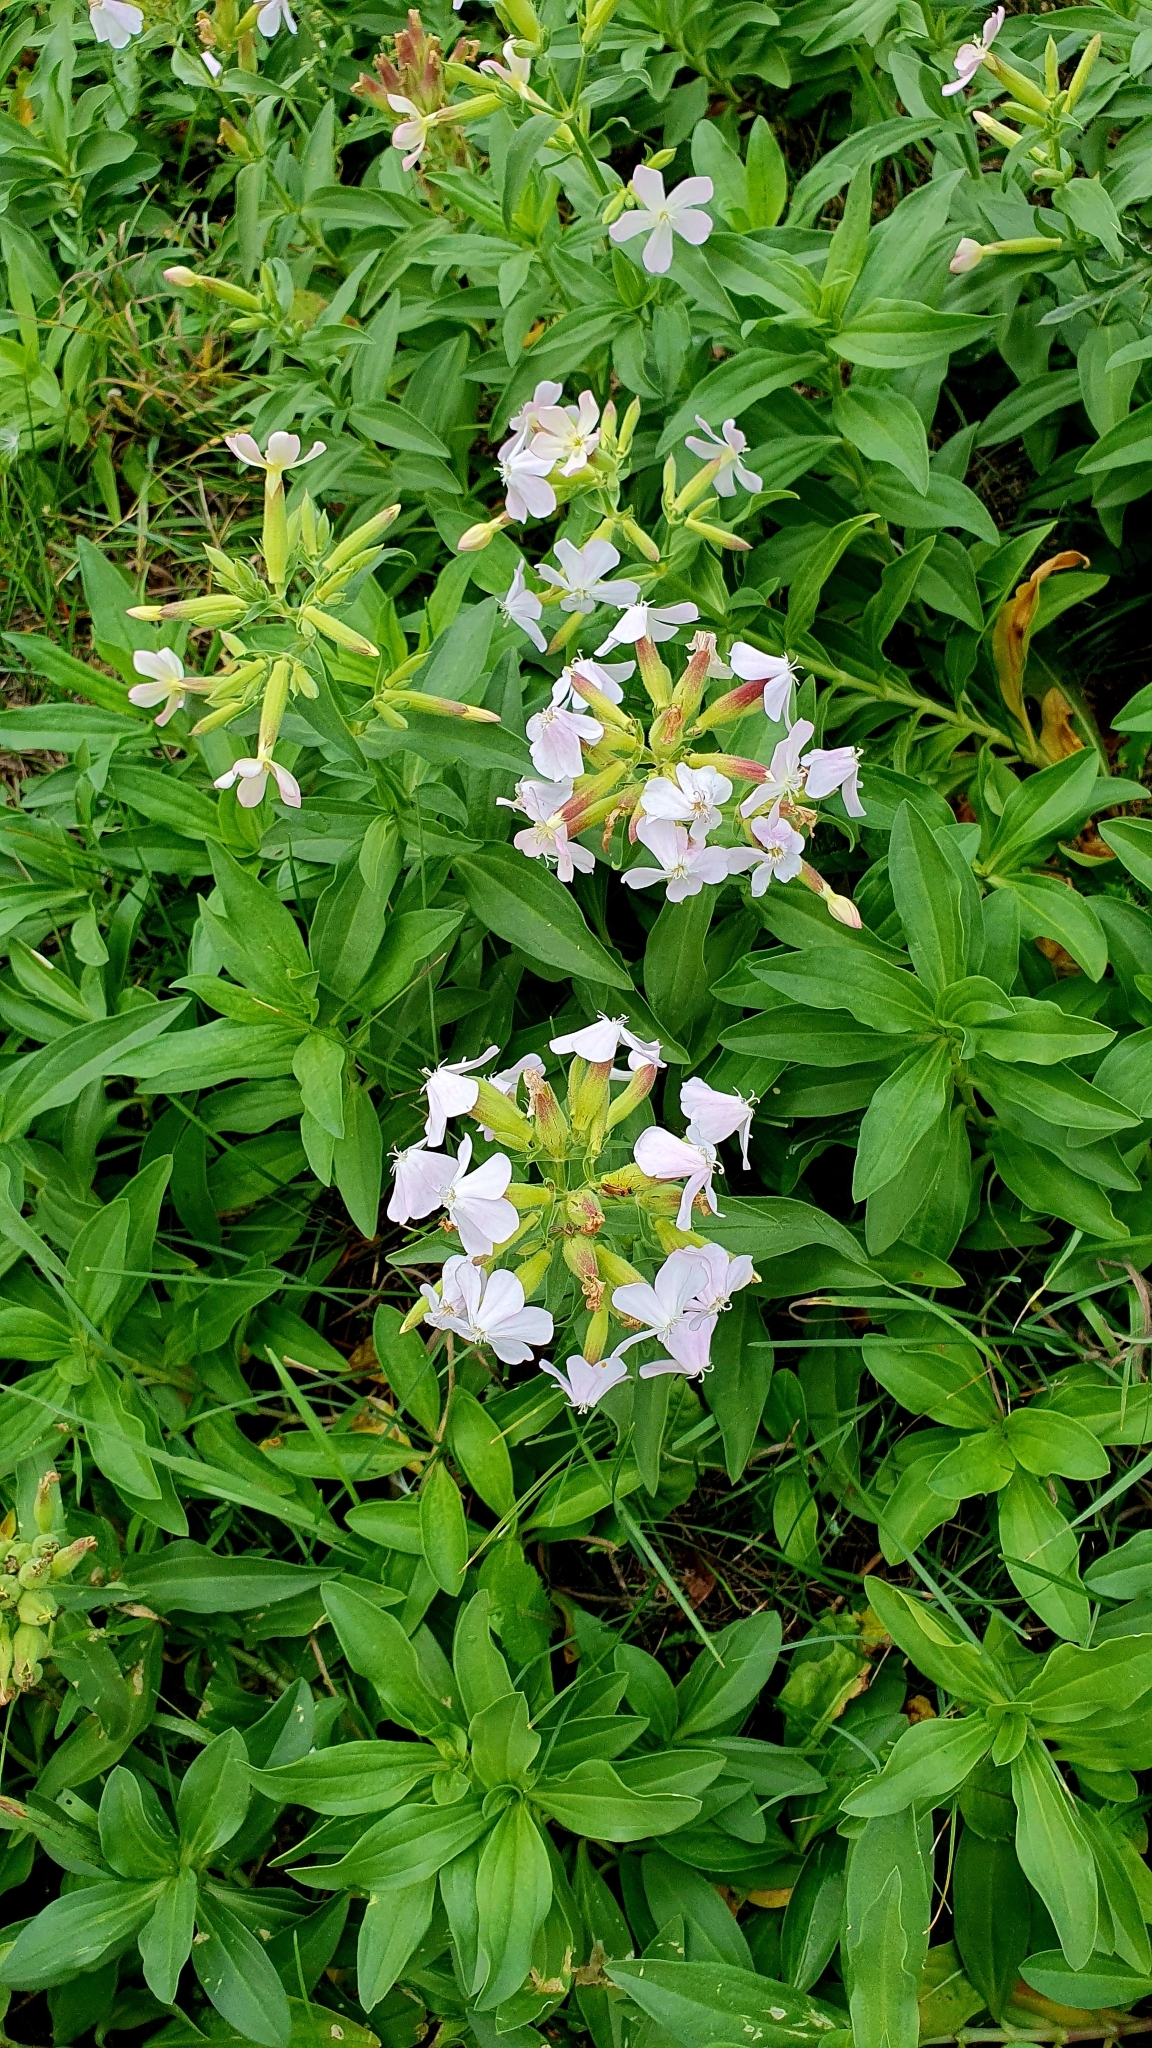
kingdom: Plantae
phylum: Tracheophyta
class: Magnoliopsida
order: Caryophyllales
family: Caryophyllaceae
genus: Saponaria
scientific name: Saponaria officinalis
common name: Soapwort
